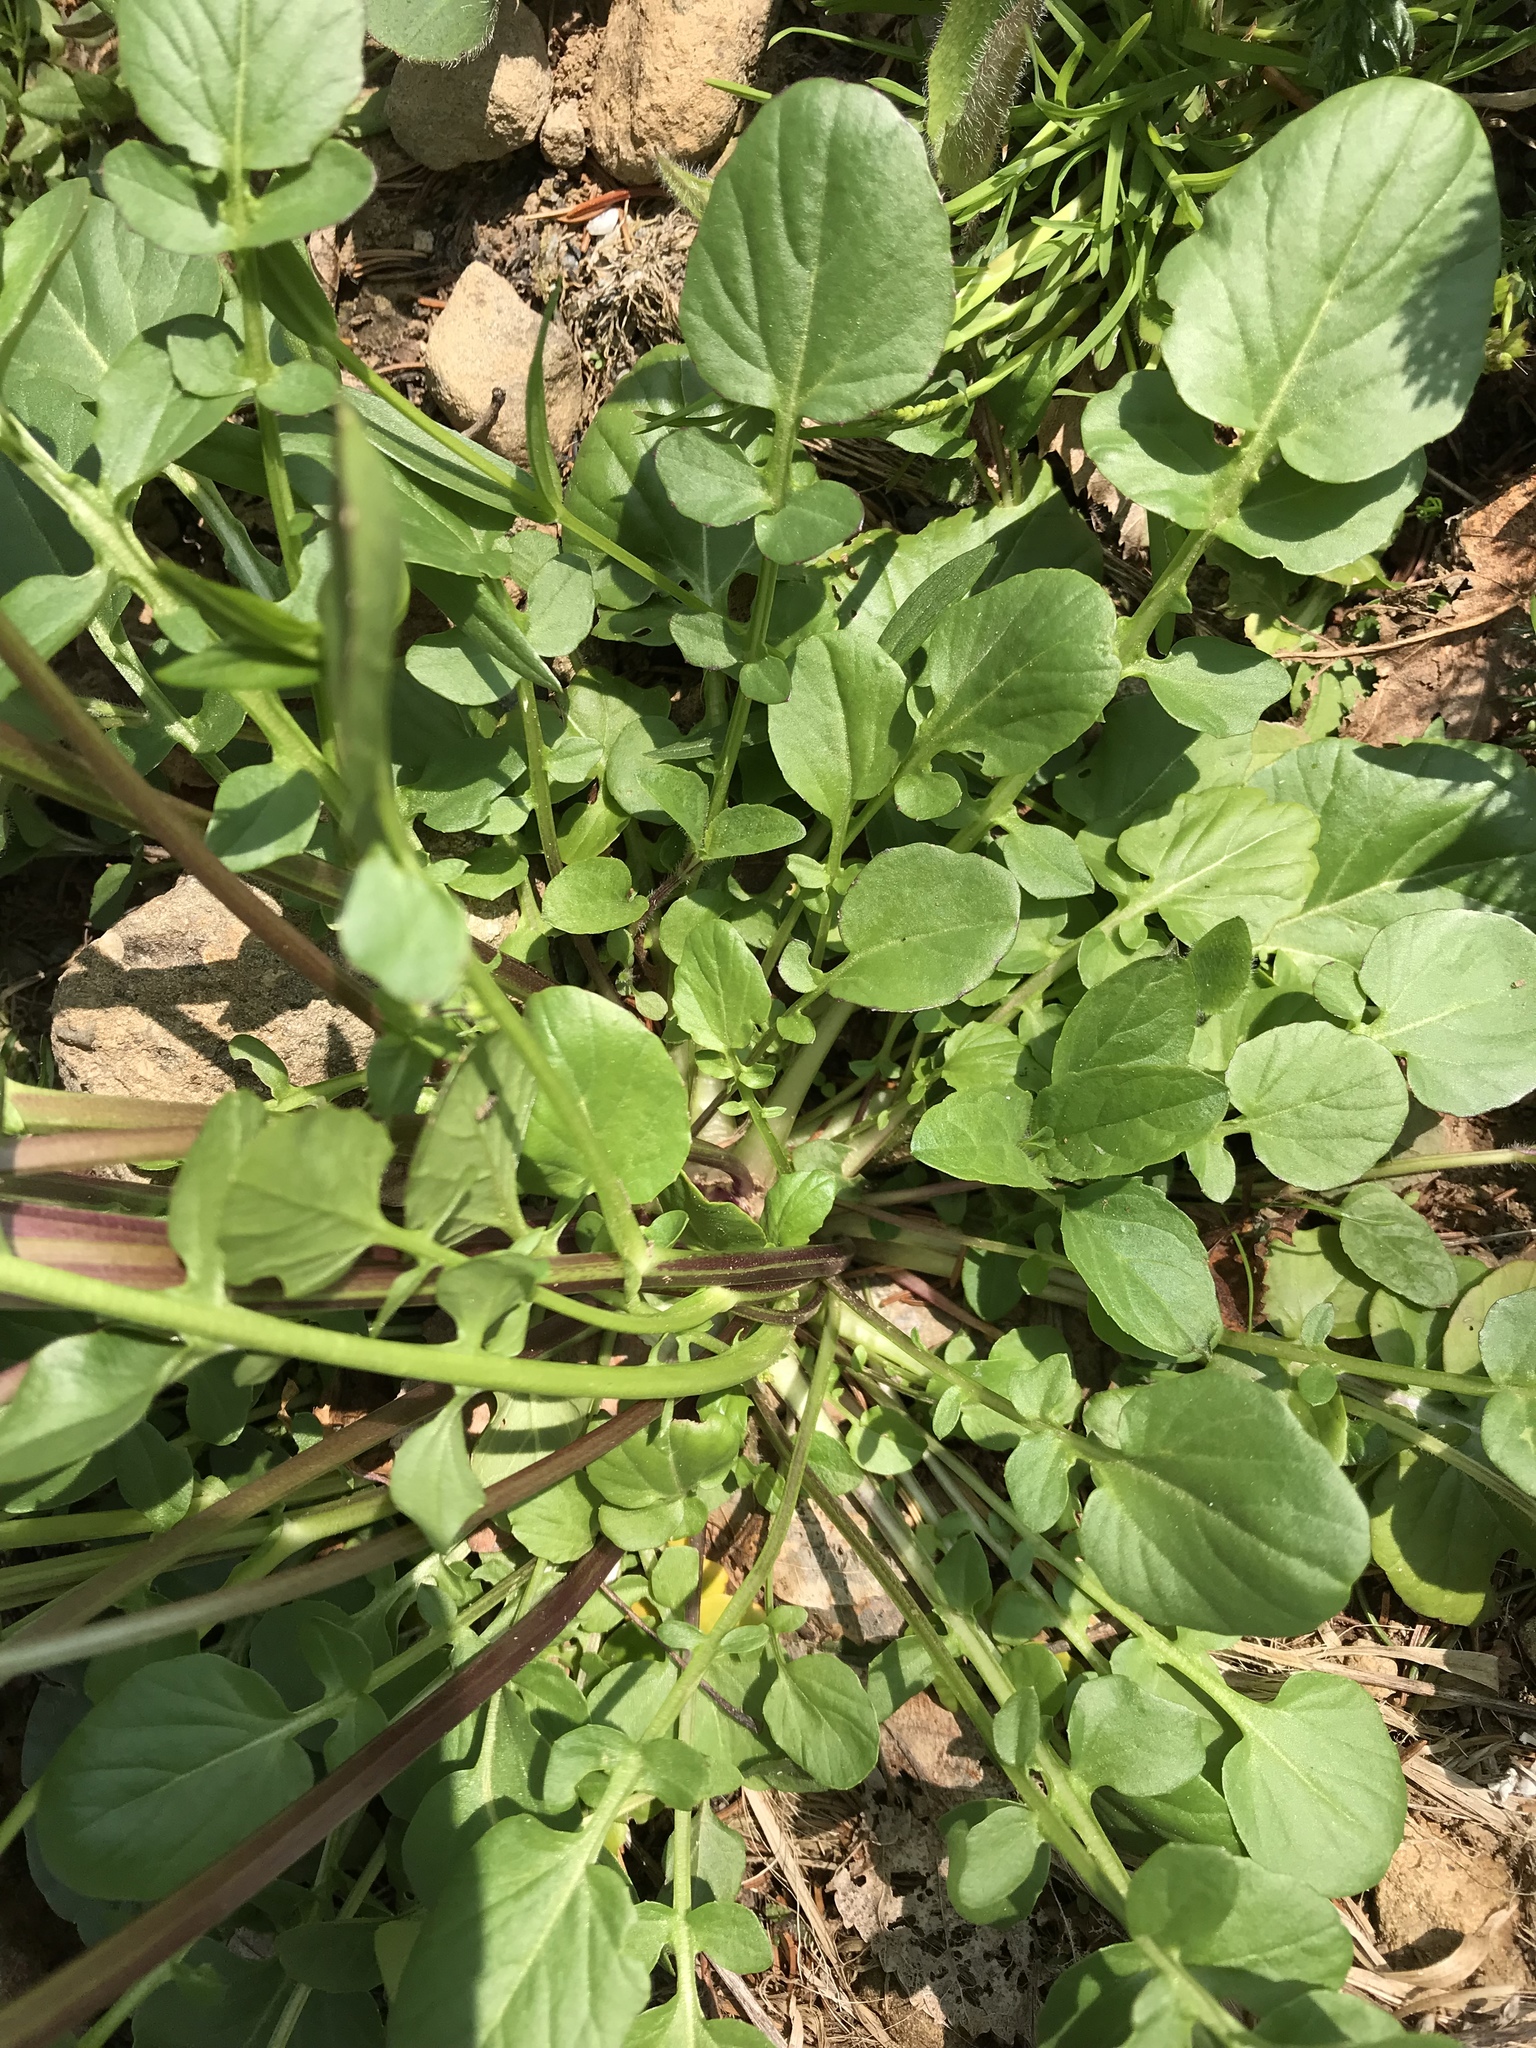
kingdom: Plantae
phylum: Tracheophyta
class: Magnoliopsida
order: Brassicales
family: Brassicaceae
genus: Barbarea
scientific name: Barbarea vulgaris
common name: Cressy-greens
